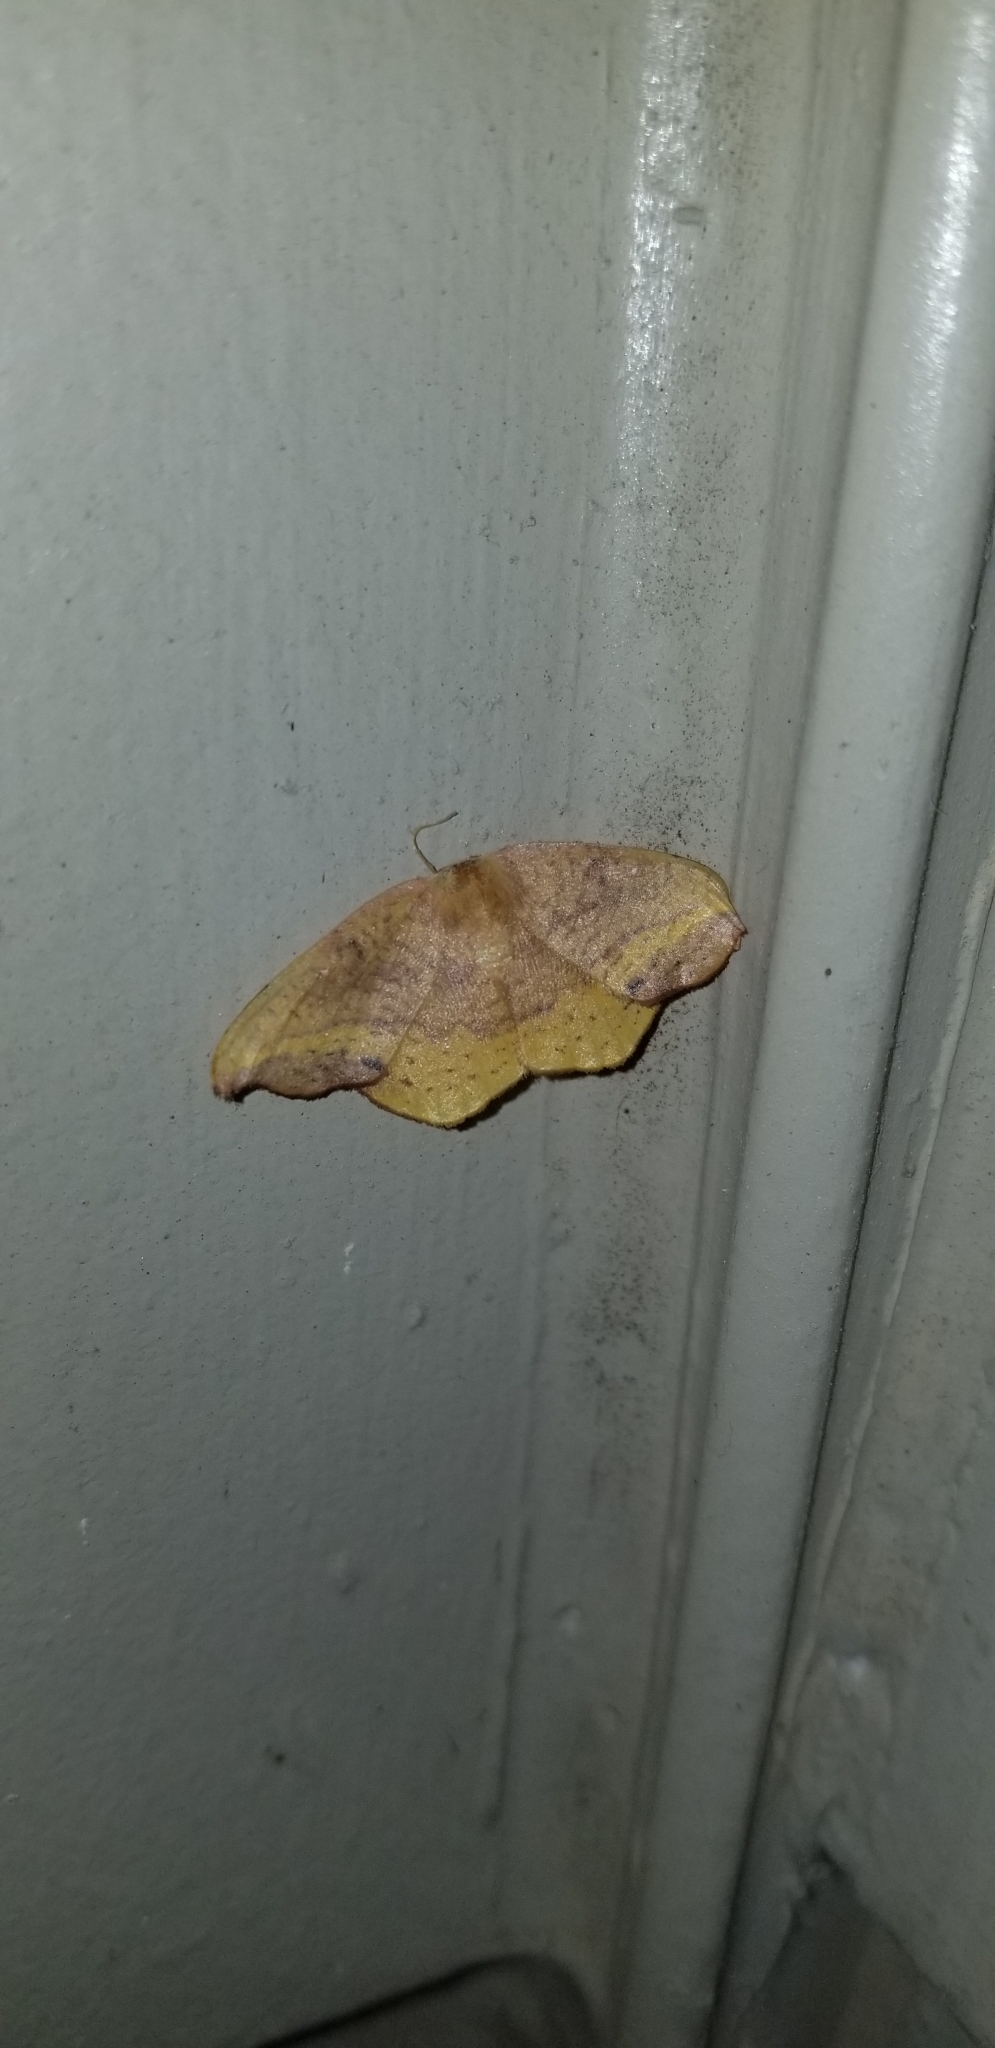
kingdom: Animalia
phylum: Arthropoda
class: Insecta
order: Lepidoptera
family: Drepanidae
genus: Oreta
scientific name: Oreta rosea
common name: Rose hooktip
